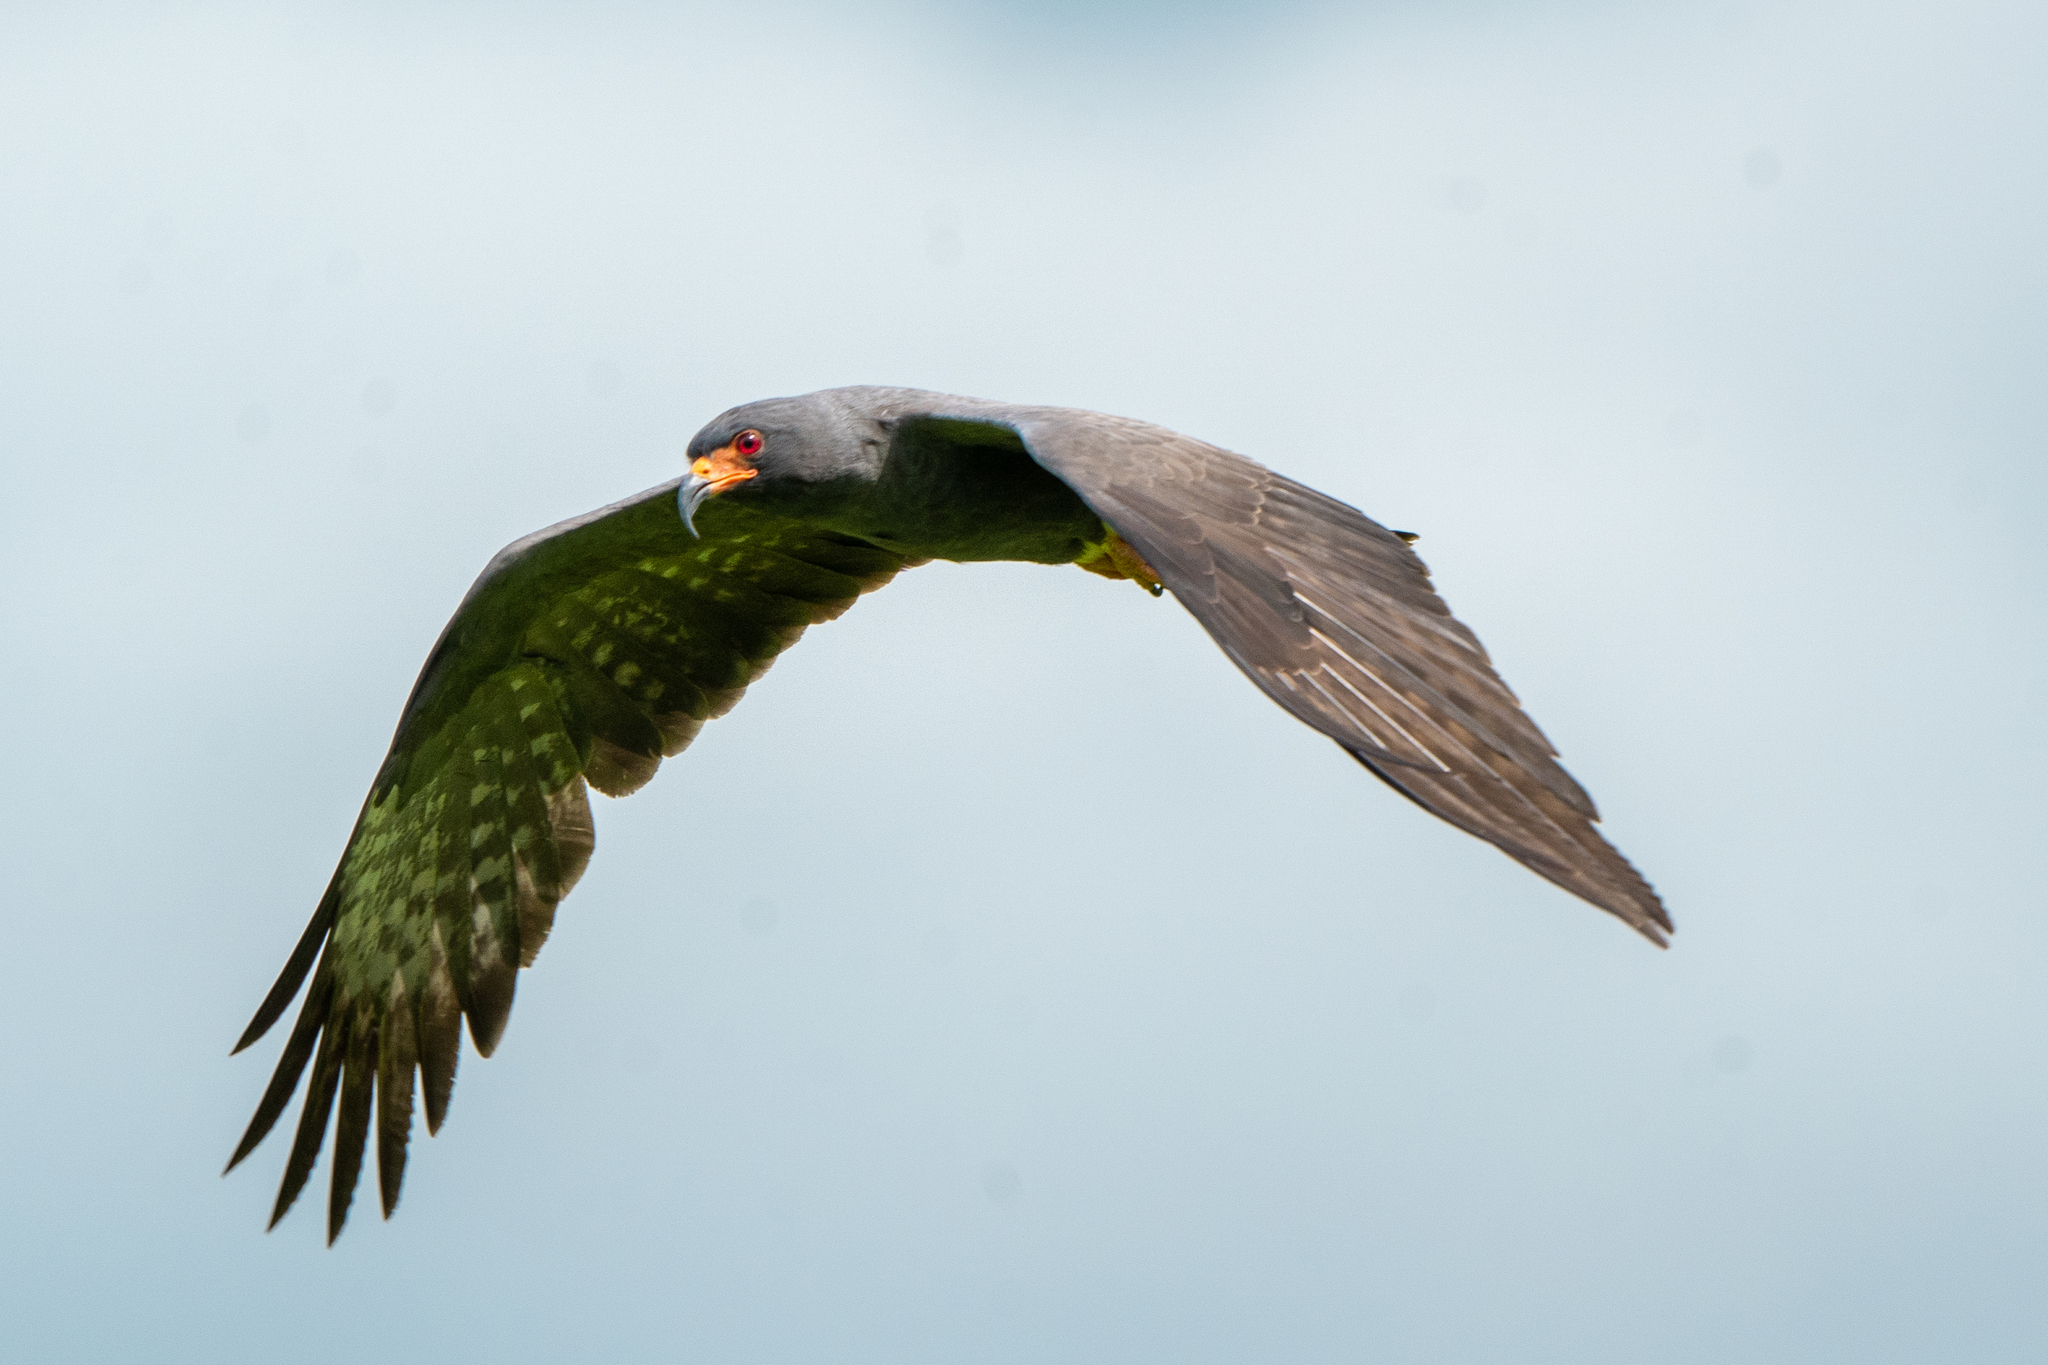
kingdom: Animalia
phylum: Chordata
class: Aves
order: Accipitriformes
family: Accipitridae
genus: Rostrhamus
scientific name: Rostrhamus sociabilis
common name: Snail kite
